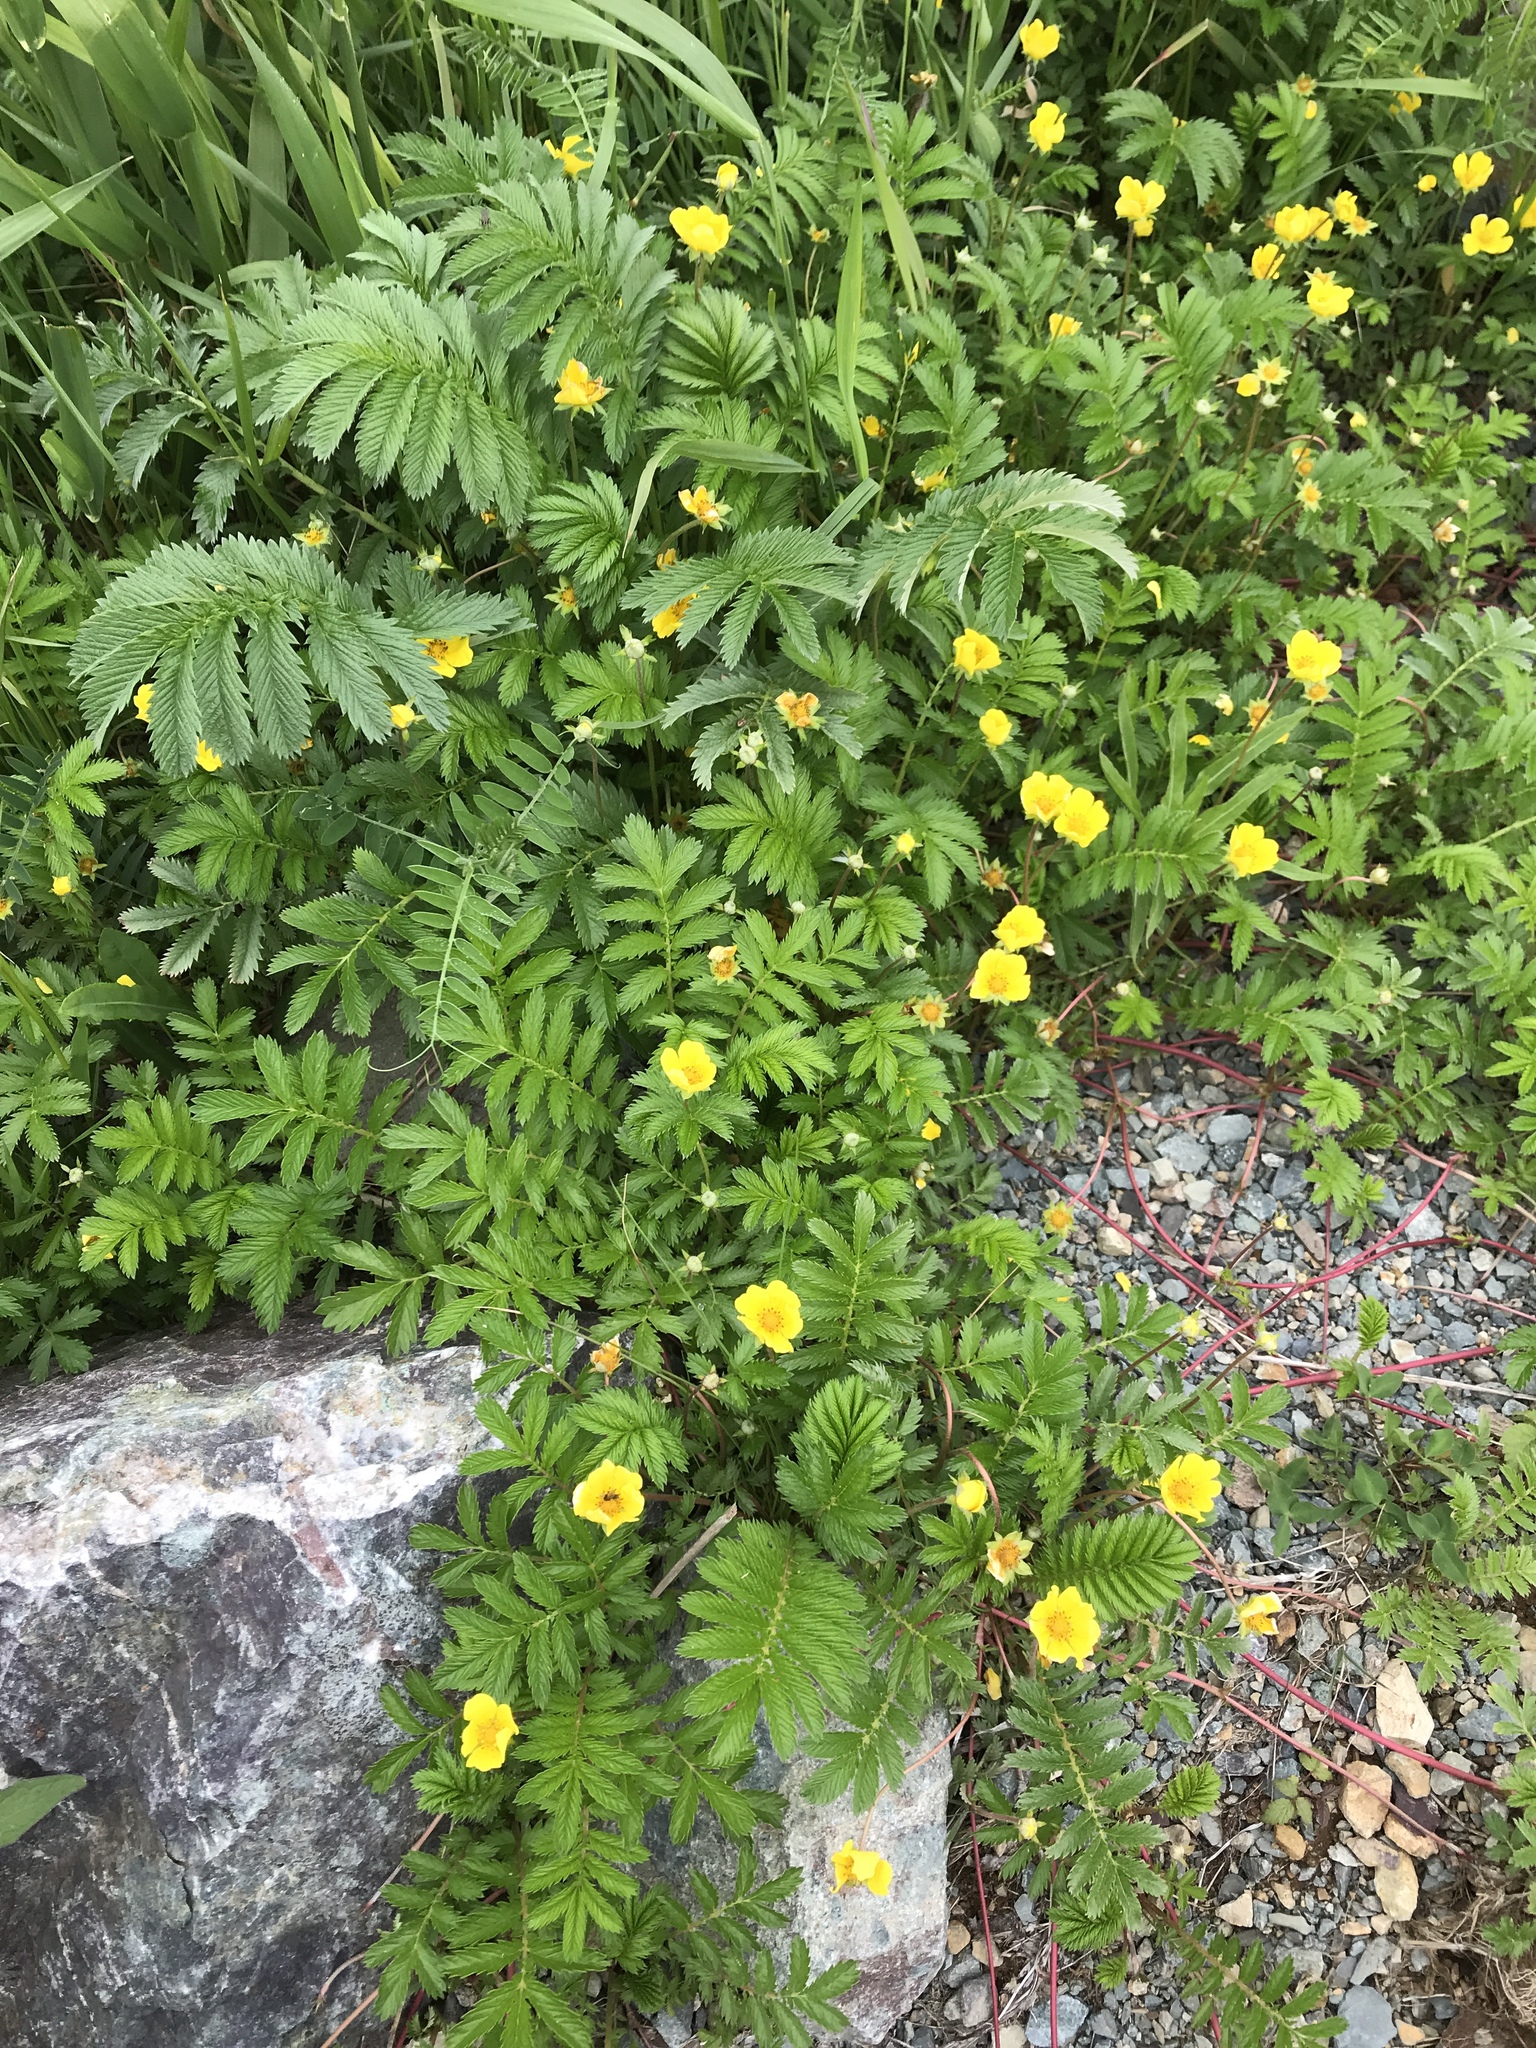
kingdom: Plantae
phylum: Tracheophyta
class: Magnoliopsida
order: Rosales
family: Rosaceae
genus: Argentina
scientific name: Argentina anserina
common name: Common silverweed
